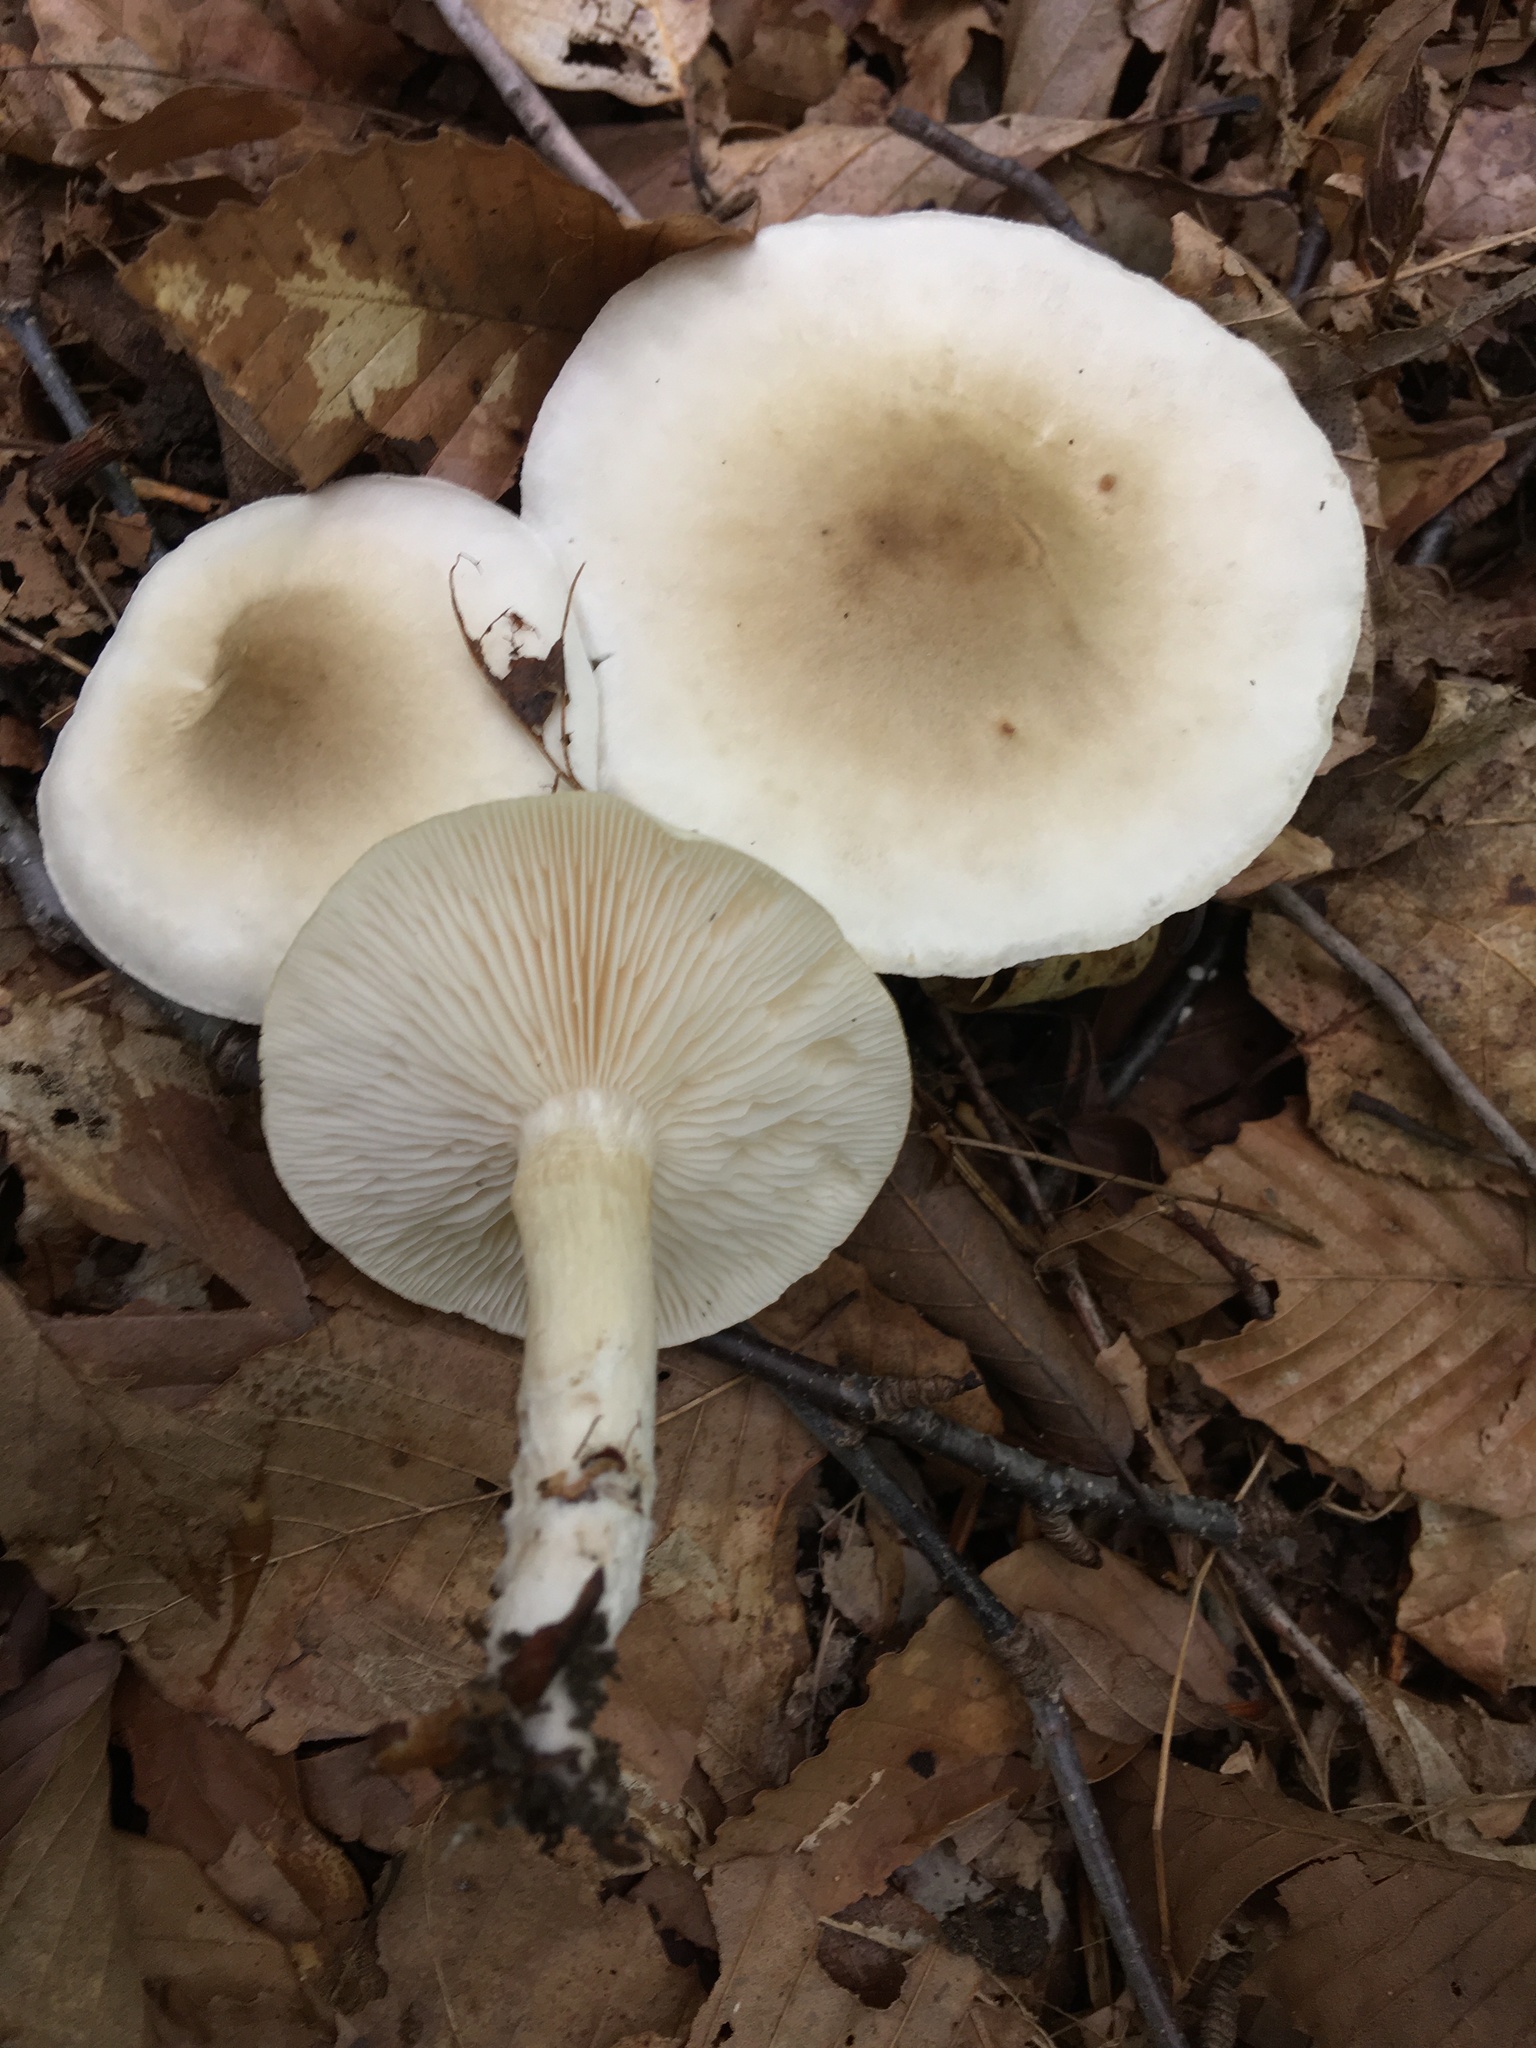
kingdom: Fungi
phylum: Basidiomycota
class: Agaricomycetes
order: Agaricales
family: Tricholomataceae
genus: Tricholoma
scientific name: Tricholoma
